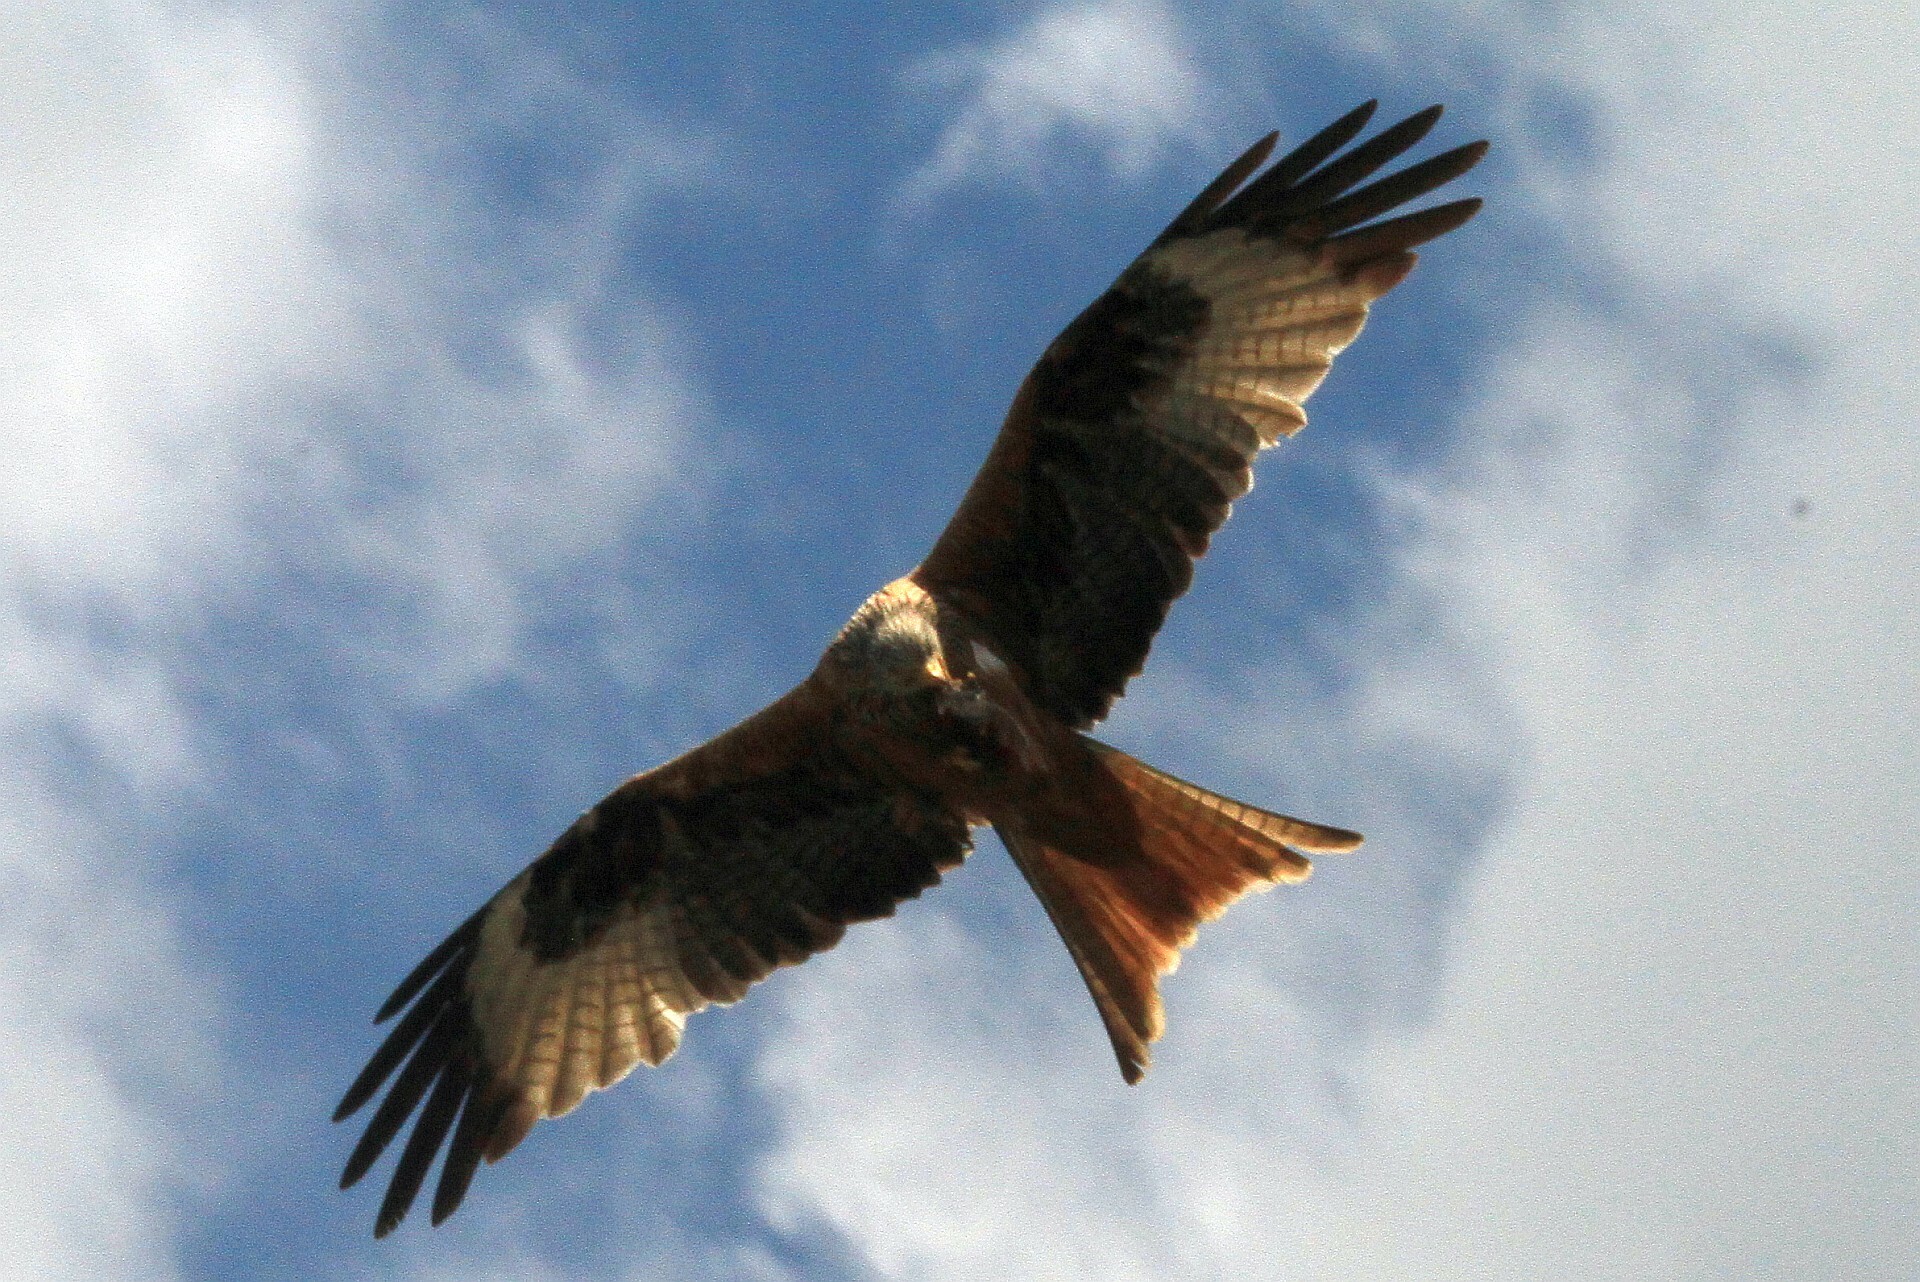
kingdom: Animalia
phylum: Chordata
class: Aves
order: Accipitriformes
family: Accipitridae
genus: Milvus
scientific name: Milvus milvus
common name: Red kite
